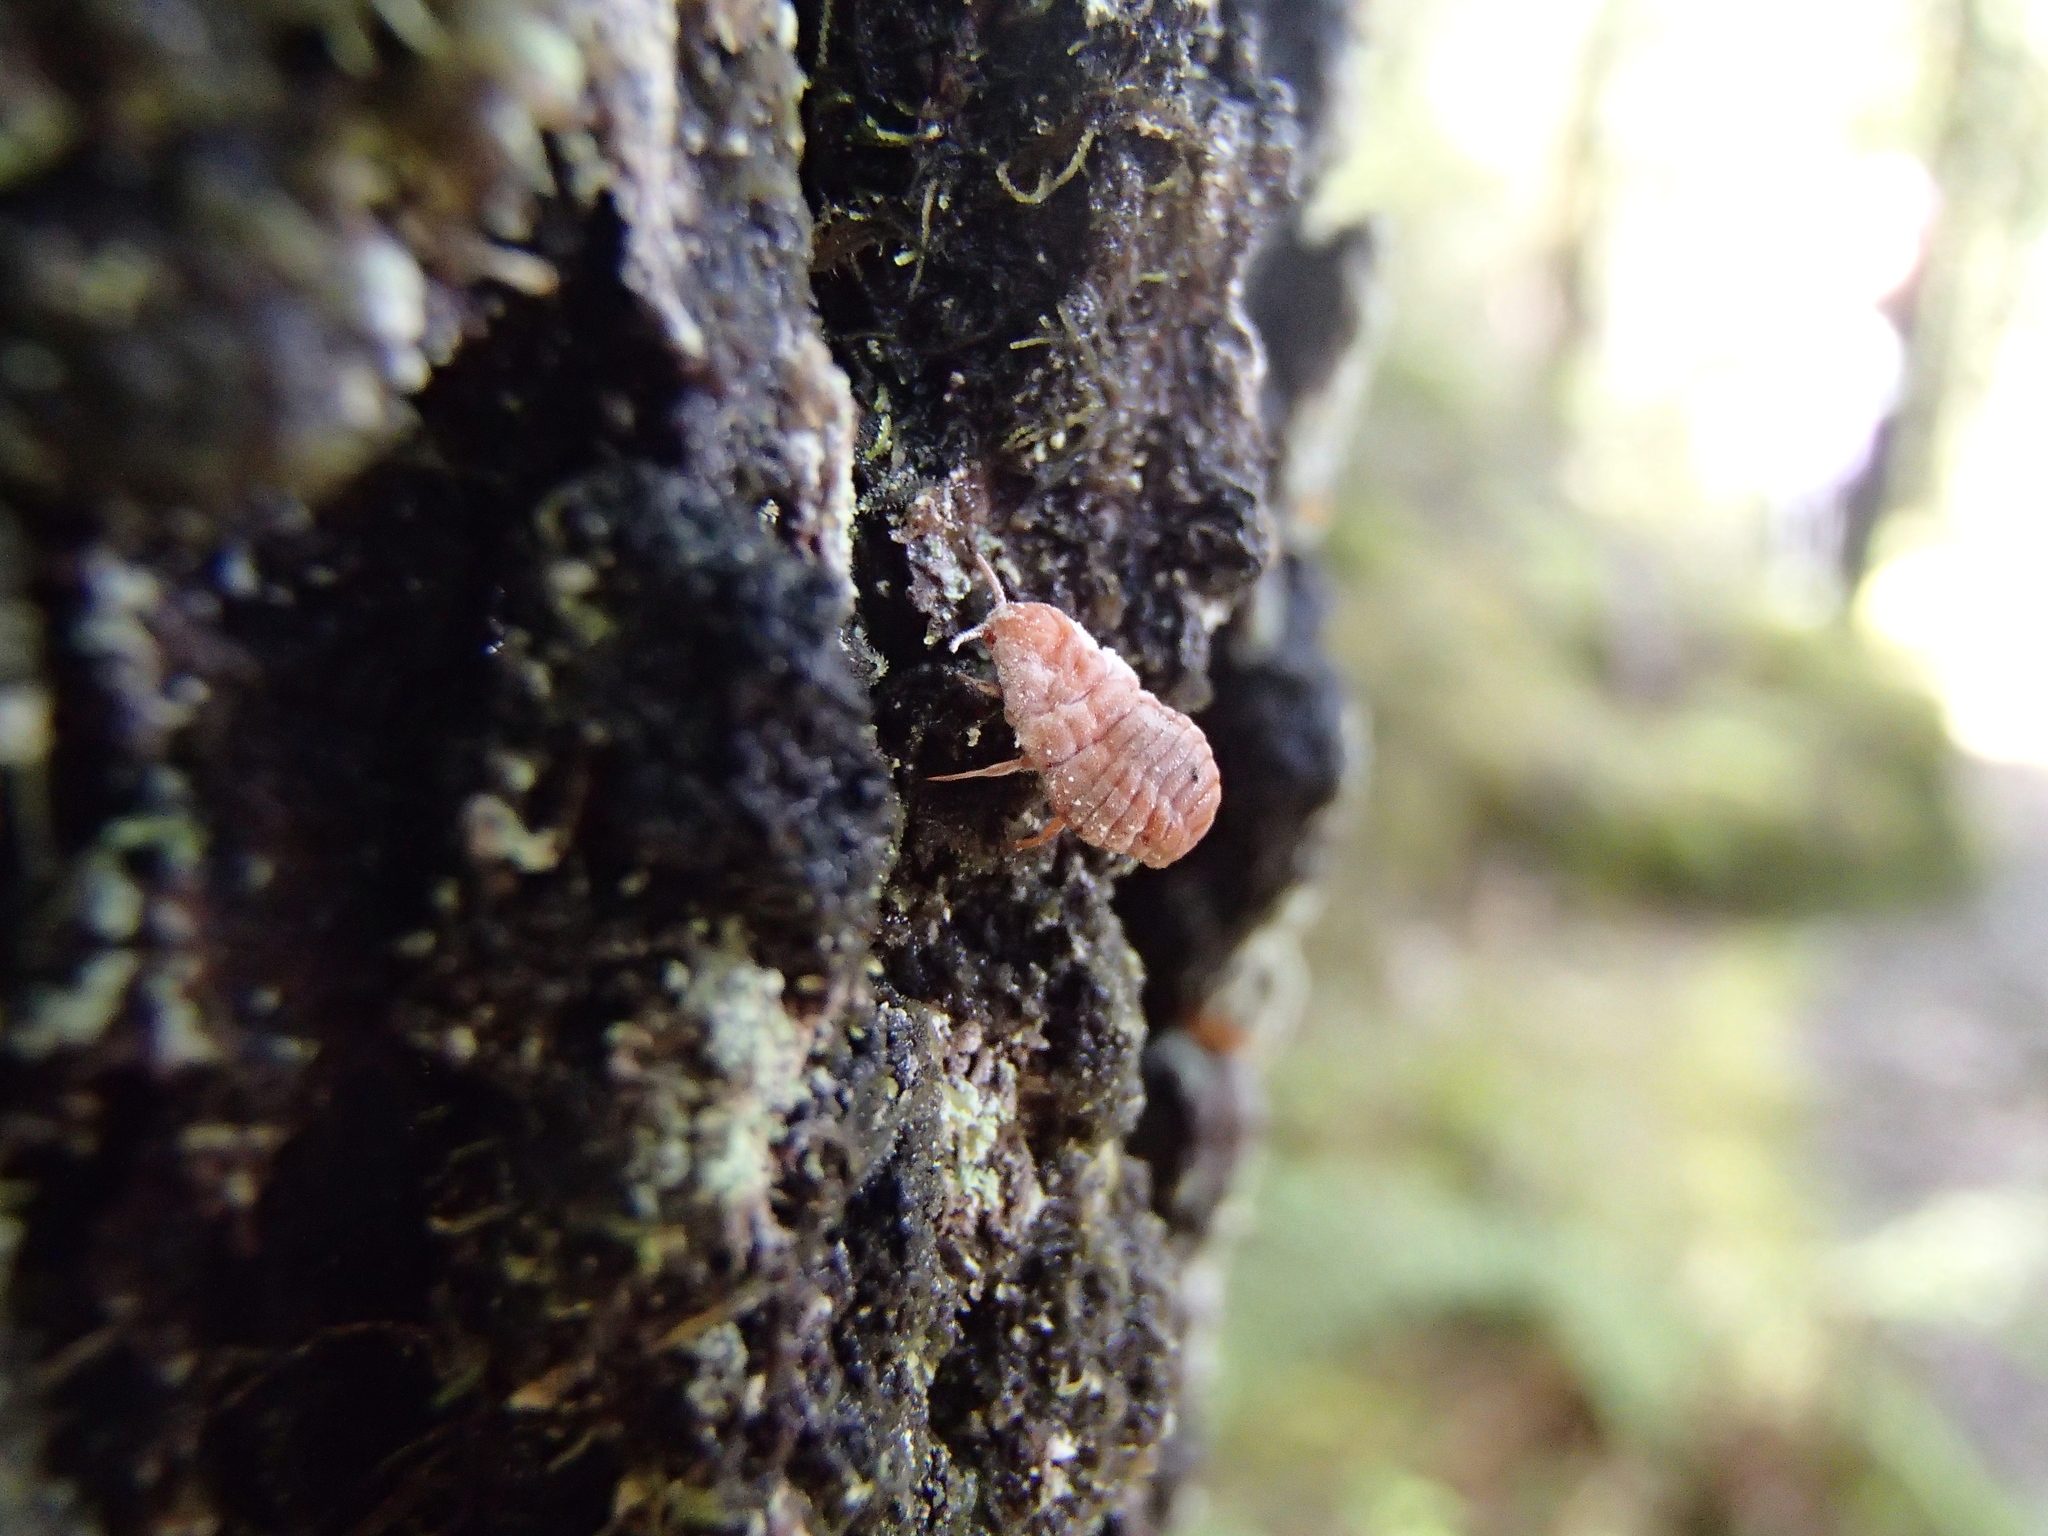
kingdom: Animalia
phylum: Arthropoda
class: Insecta
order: Hemiptera
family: Margarodidae
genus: Coelostomidia
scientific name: Coelostomidia zealandica
